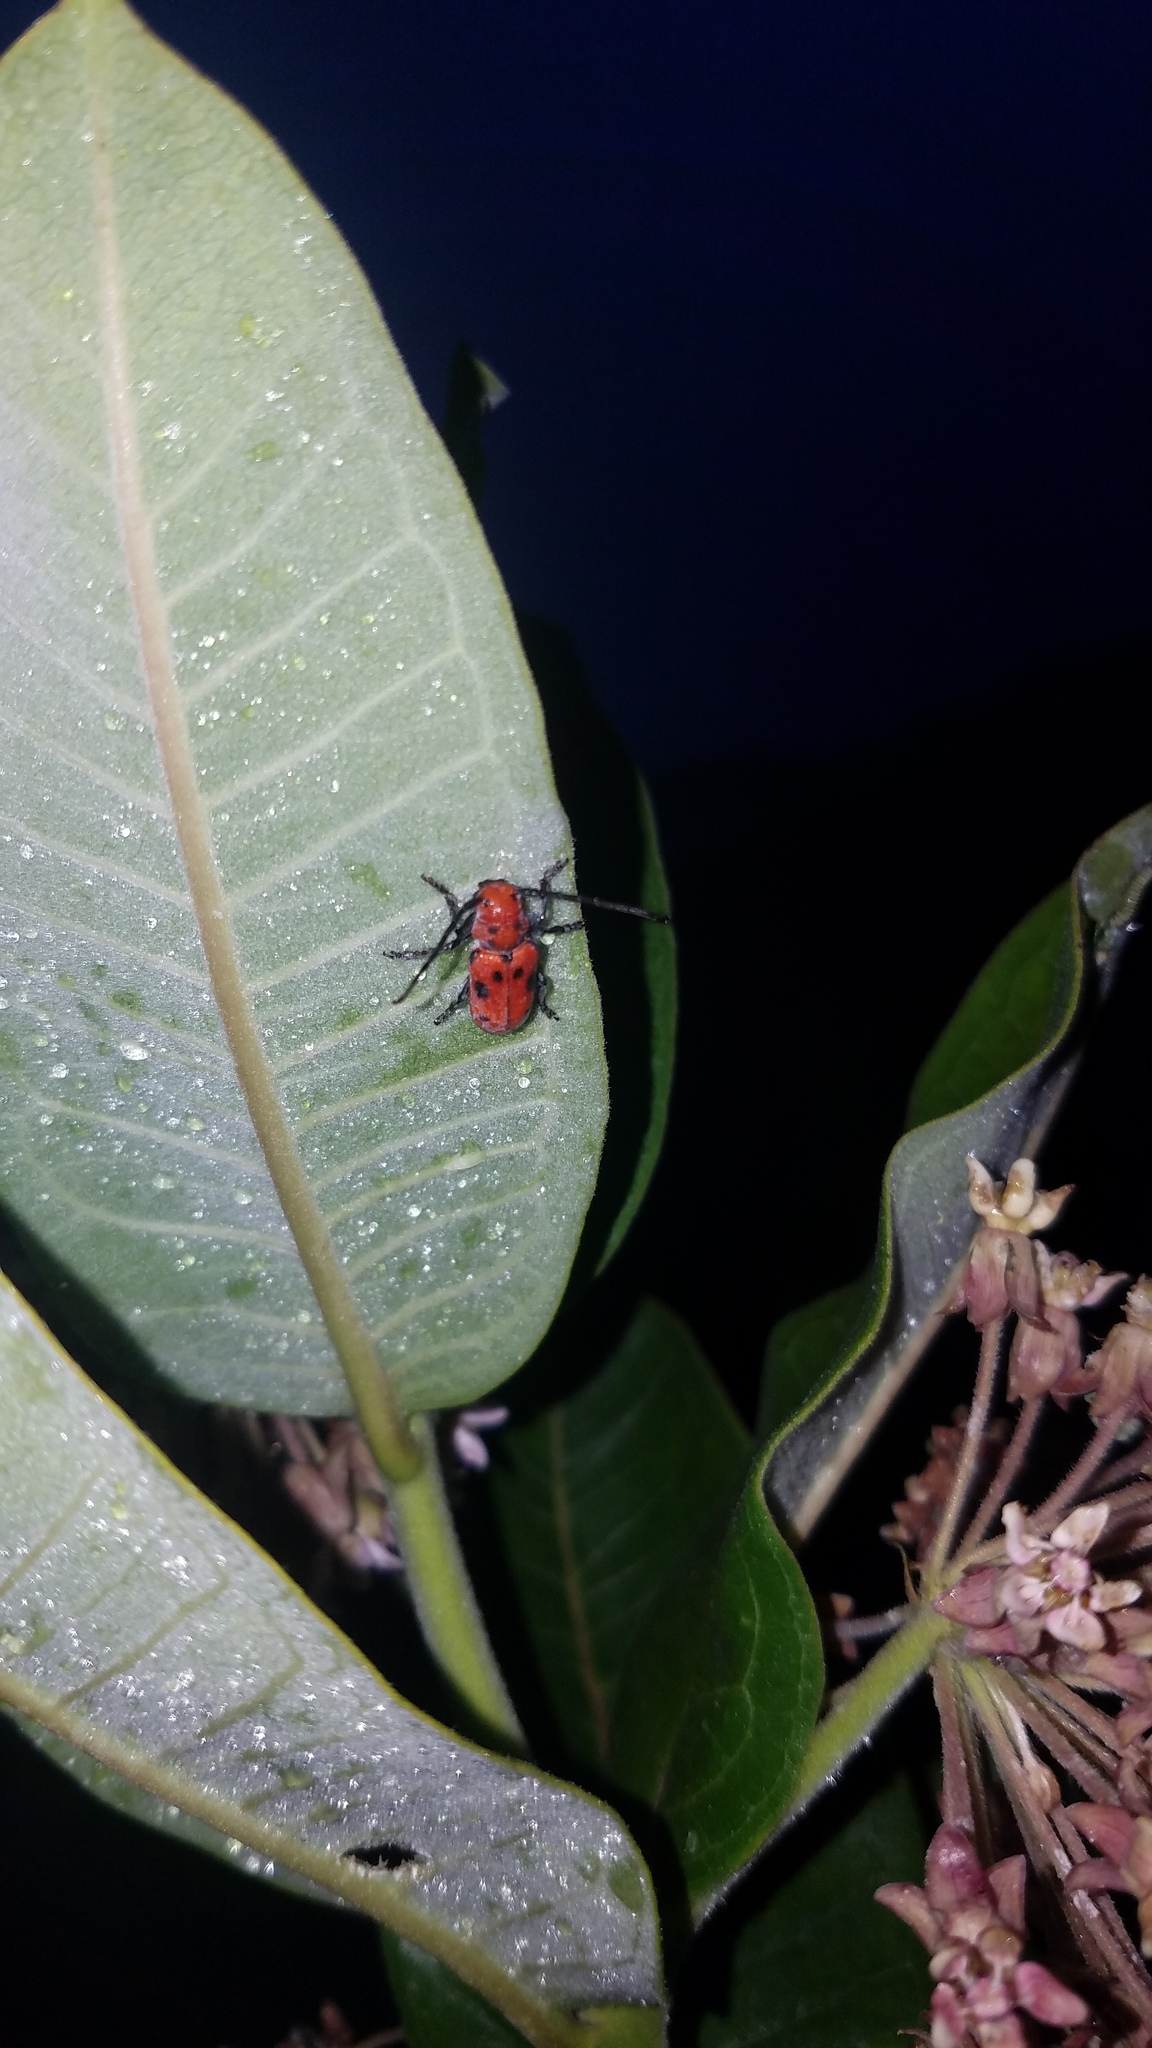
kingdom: Animalia
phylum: Arthropoda
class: Insecta
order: Coleoptera
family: Cerambycidae
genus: Tetraopes
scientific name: Tetraopes tetrophthalmus
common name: Red milkweed beetle
